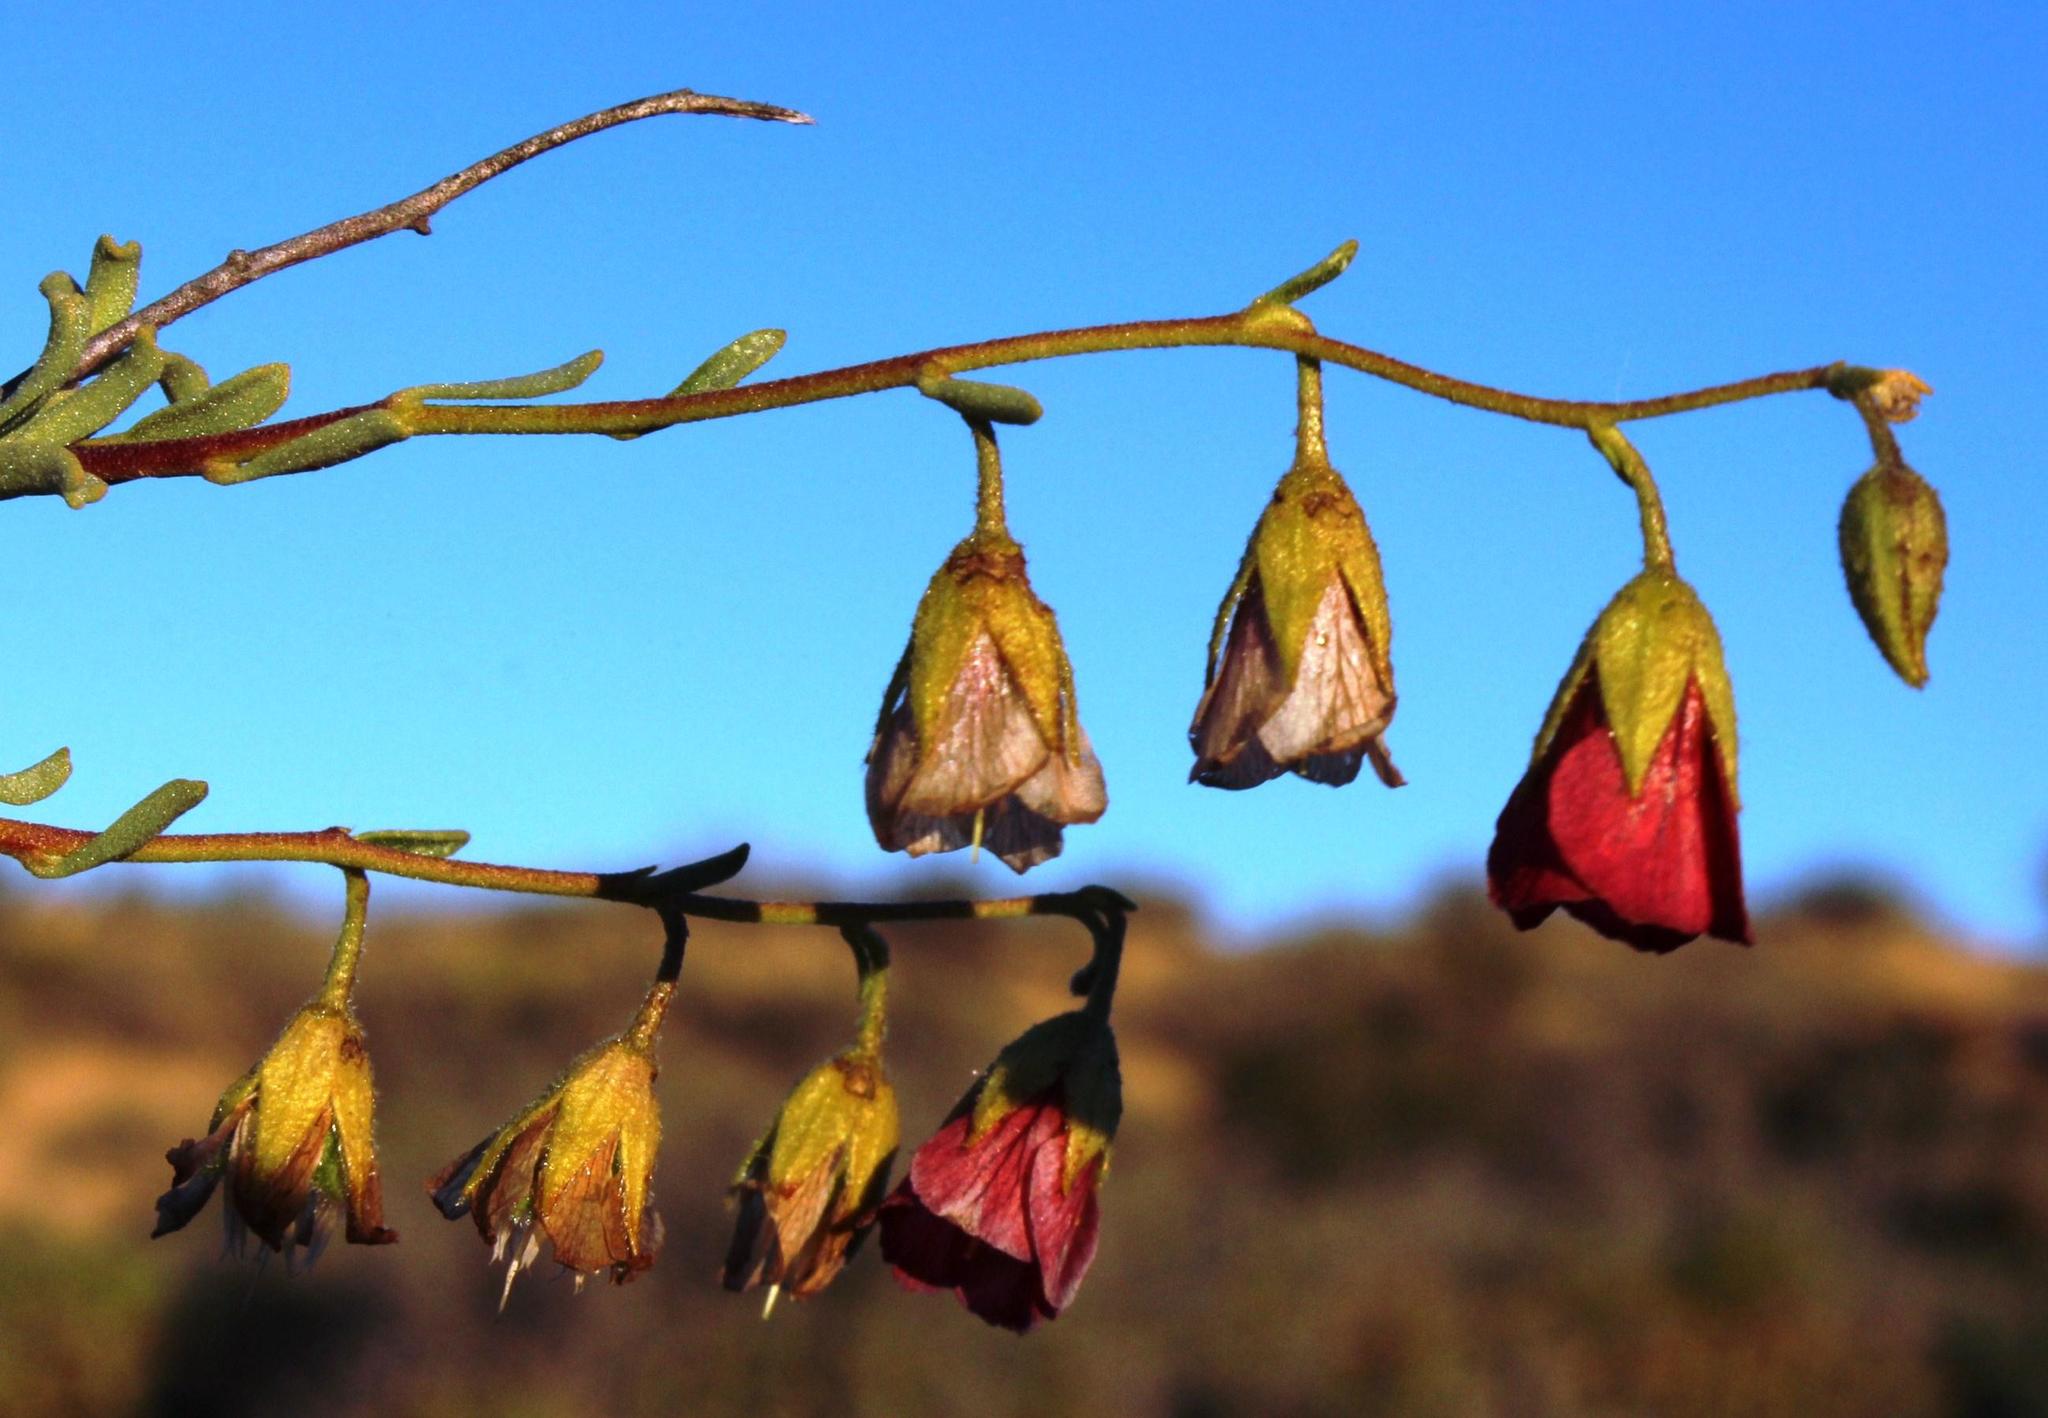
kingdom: Plantae
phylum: Tracheophyta
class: Magnoliopsida
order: Malvales
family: Malvaceae
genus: Hermannia
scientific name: Hermannia trifurca
